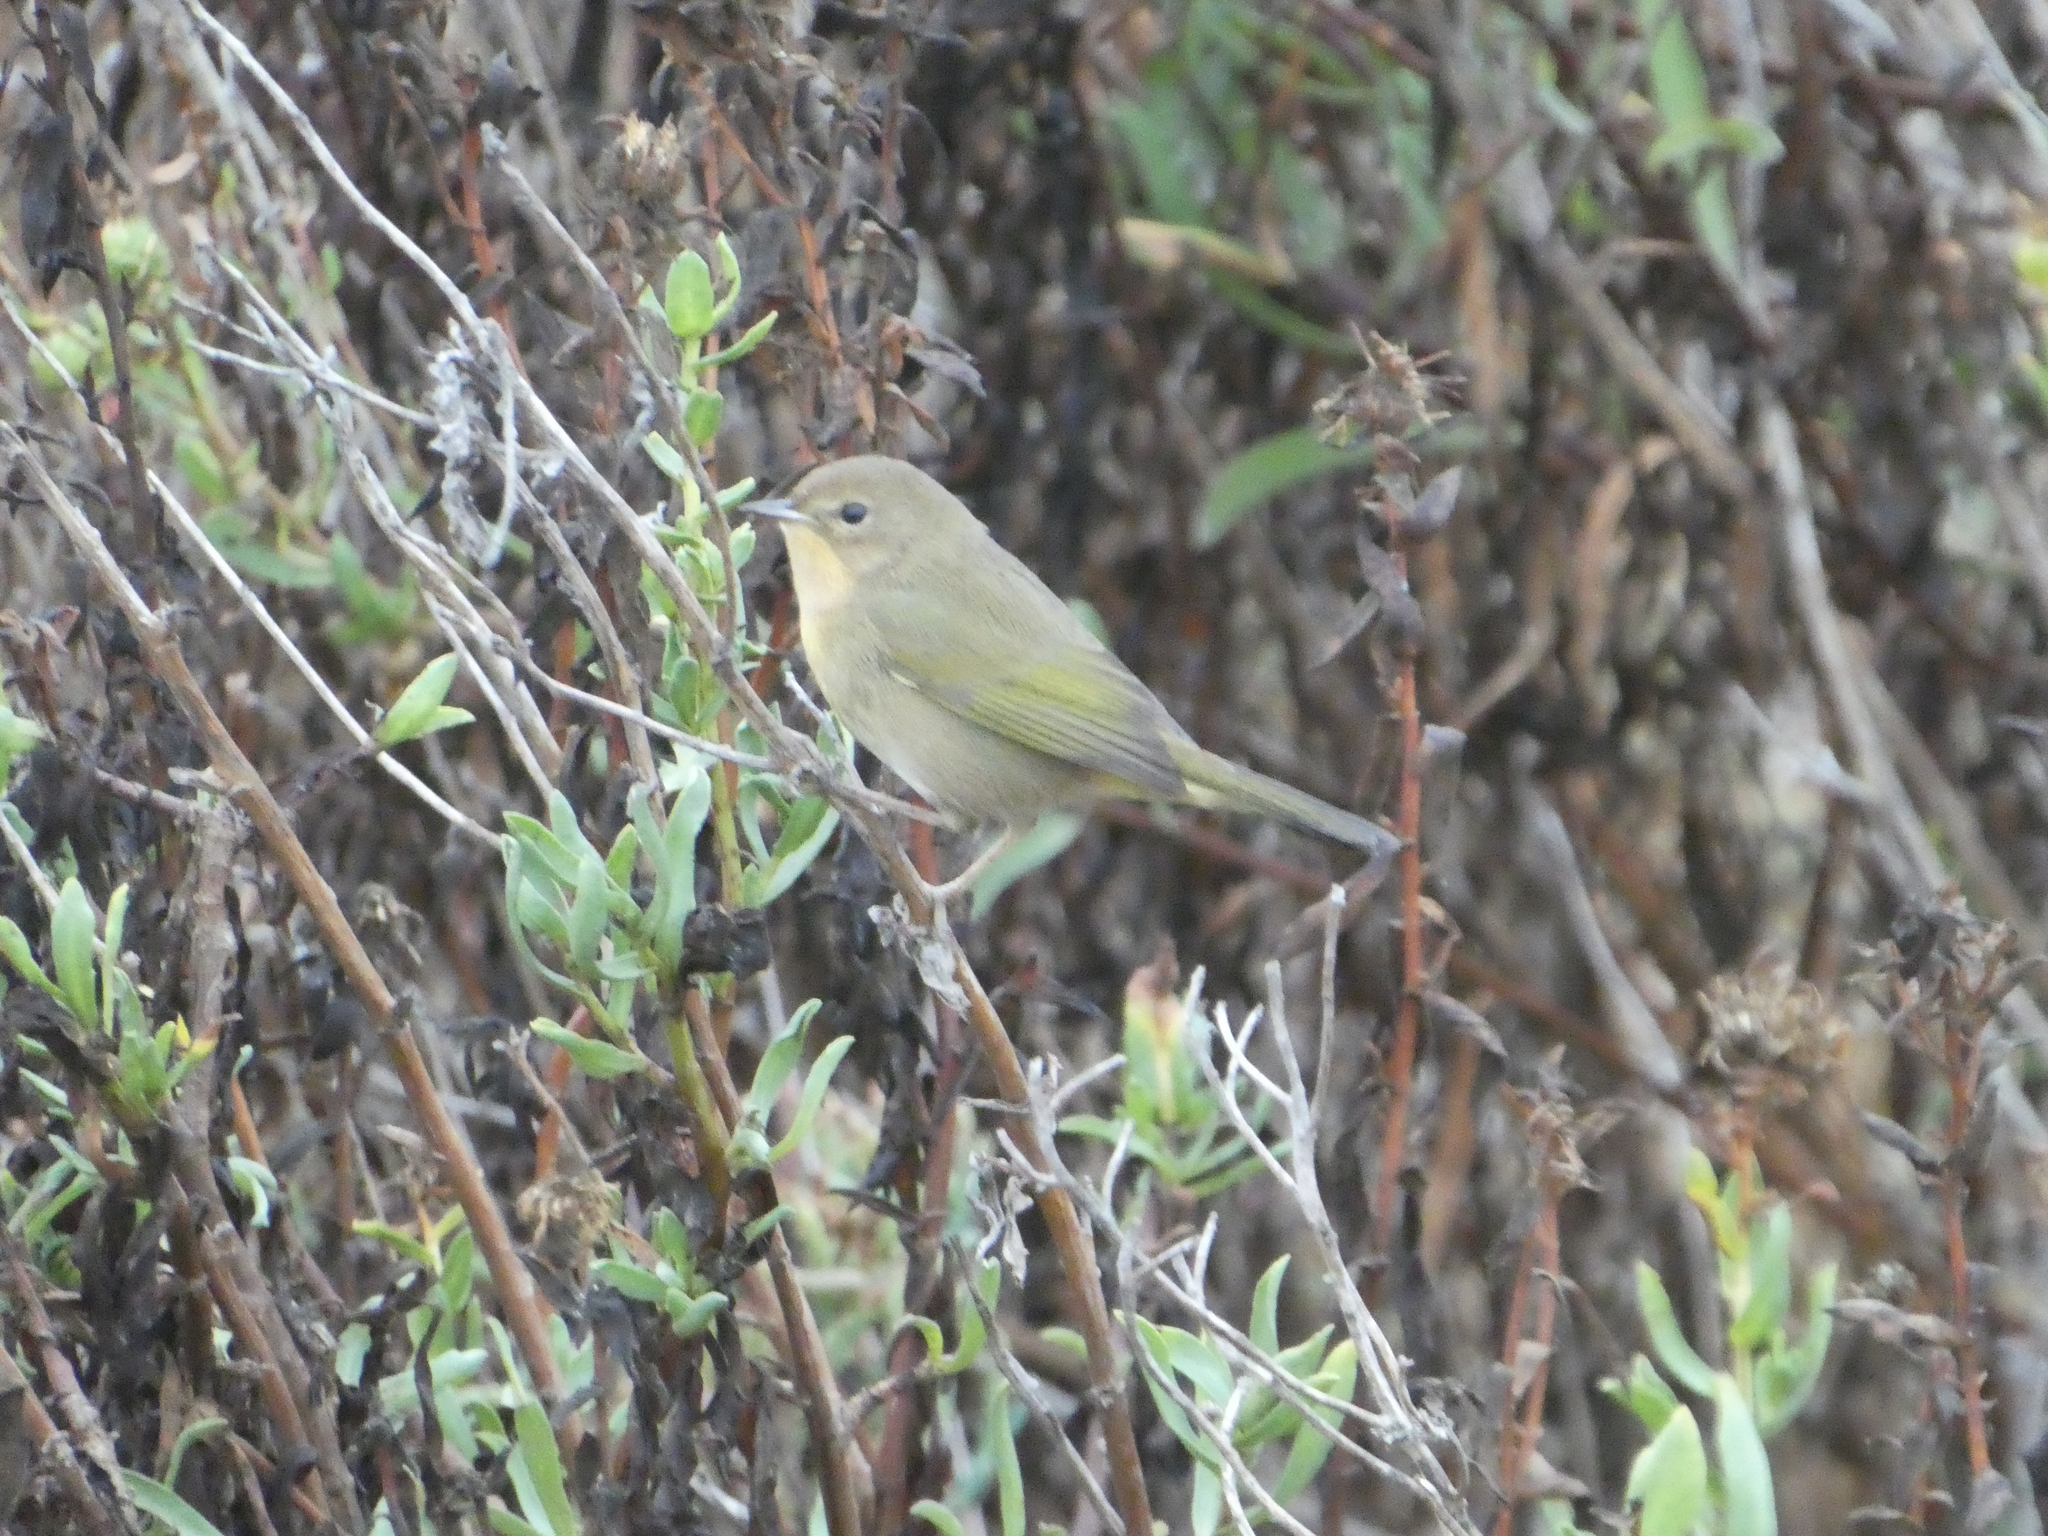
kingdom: Animalia
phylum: Chordata
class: Aves
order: Passeriformes
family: Parulidae
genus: Geothlypis
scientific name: Geothlypis trichas
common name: Common yellowthroat
